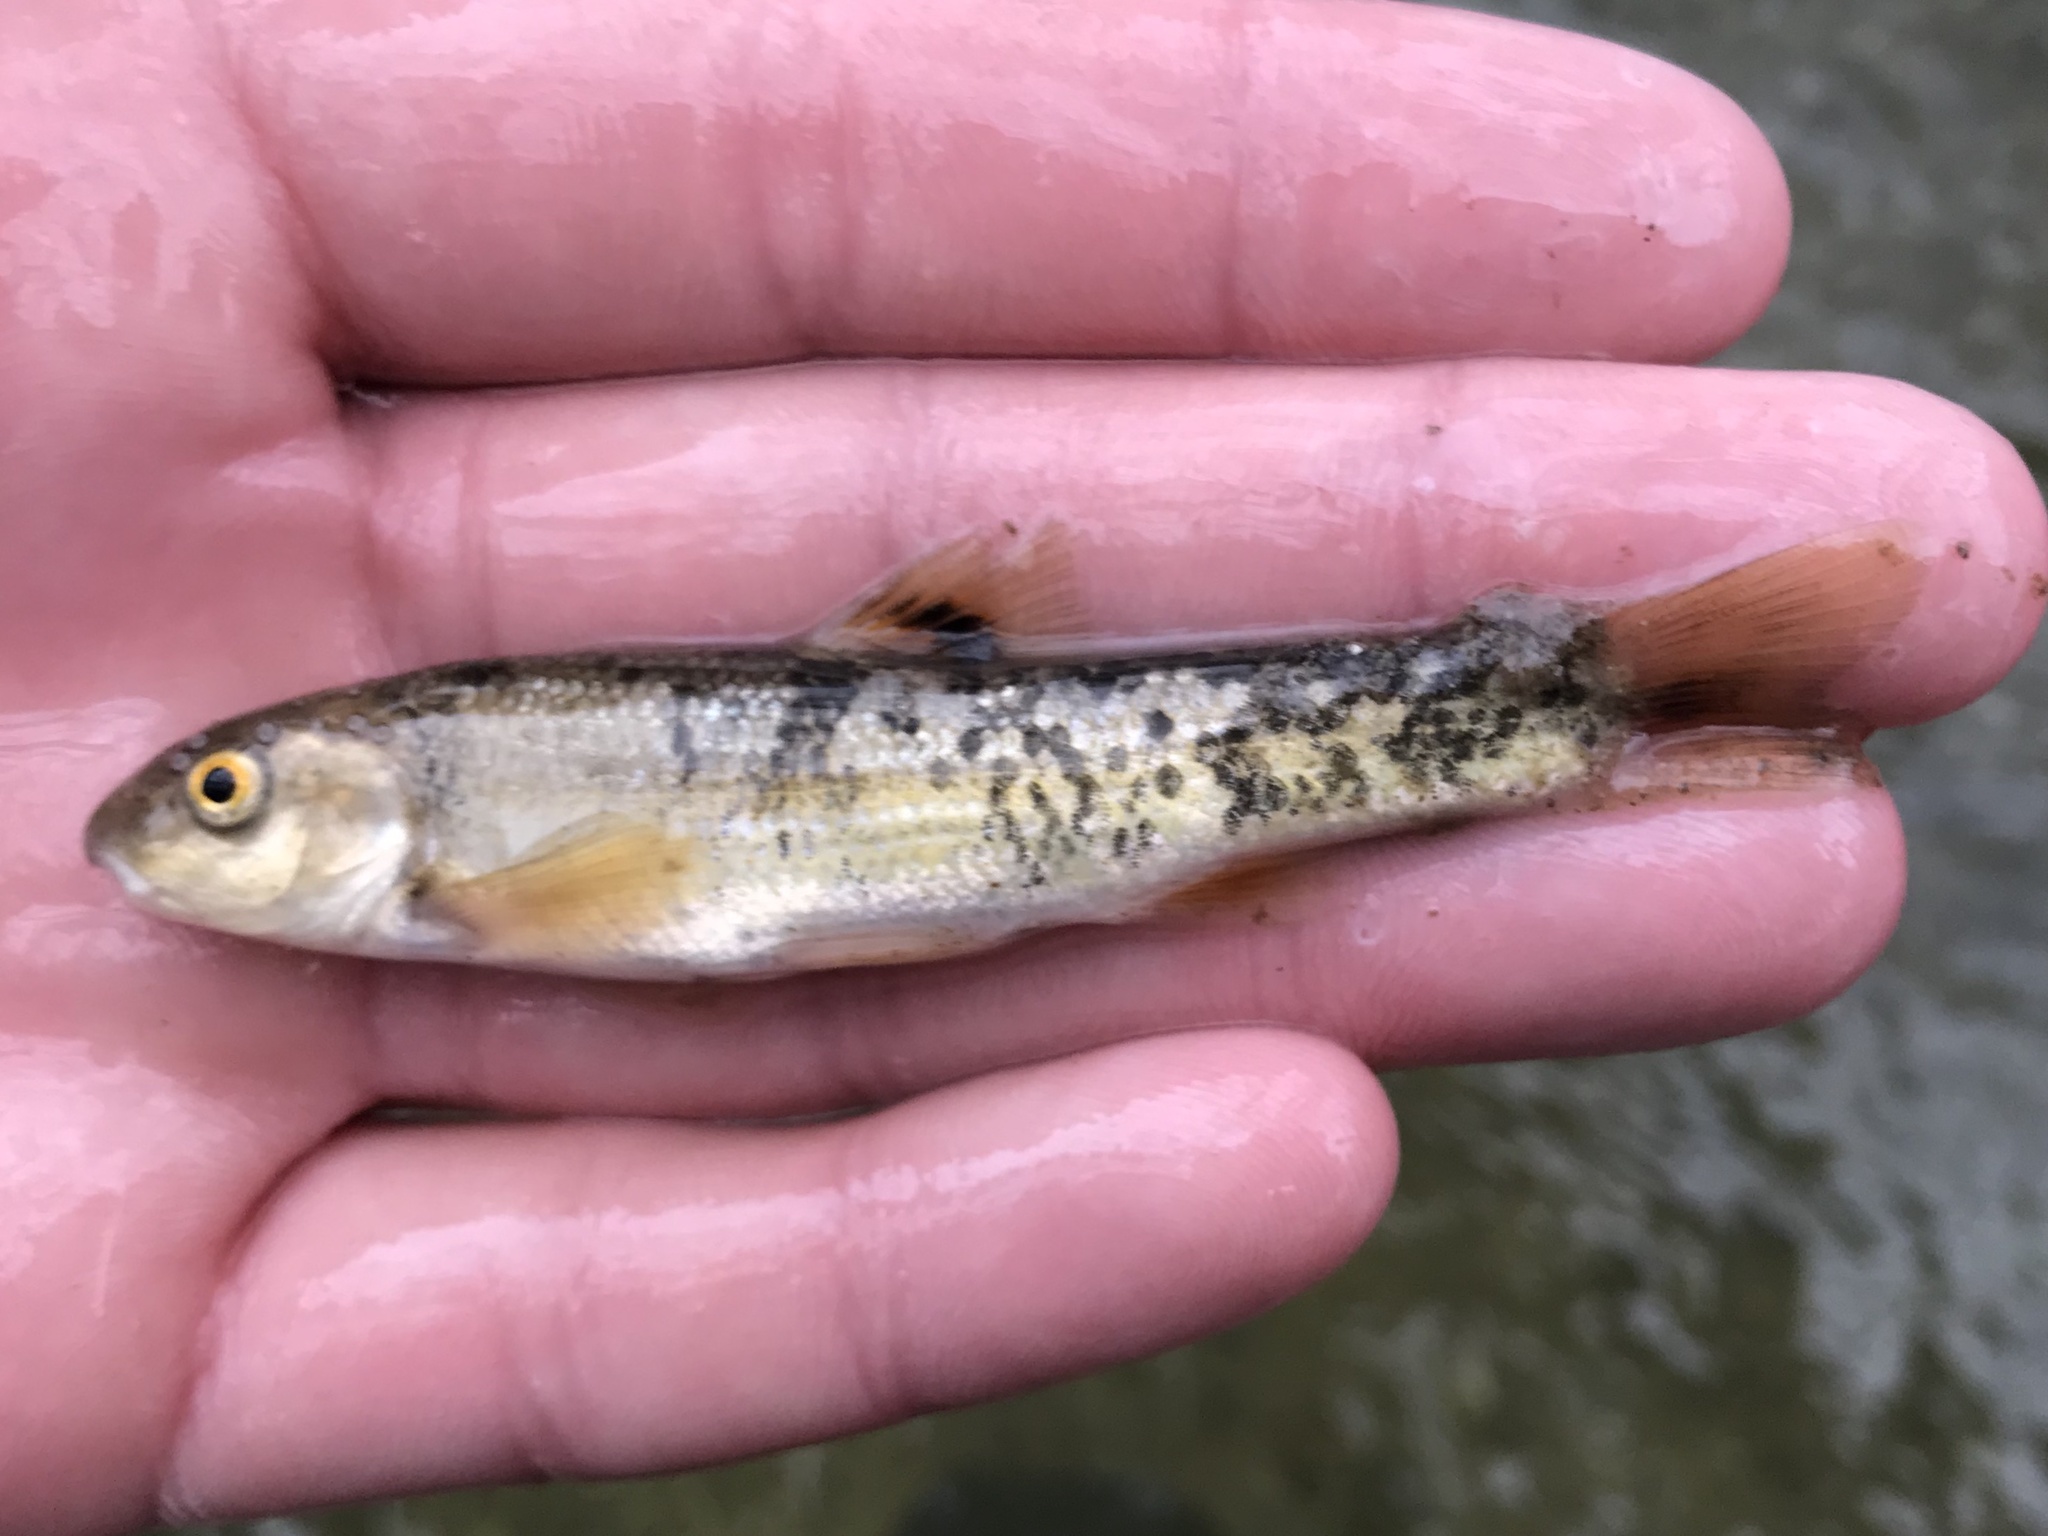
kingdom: Animalia
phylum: Chordata
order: Cypriniformes
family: Cyprinidae
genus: Campostoma
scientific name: Campostoma anomalum
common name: Central stoneroller
